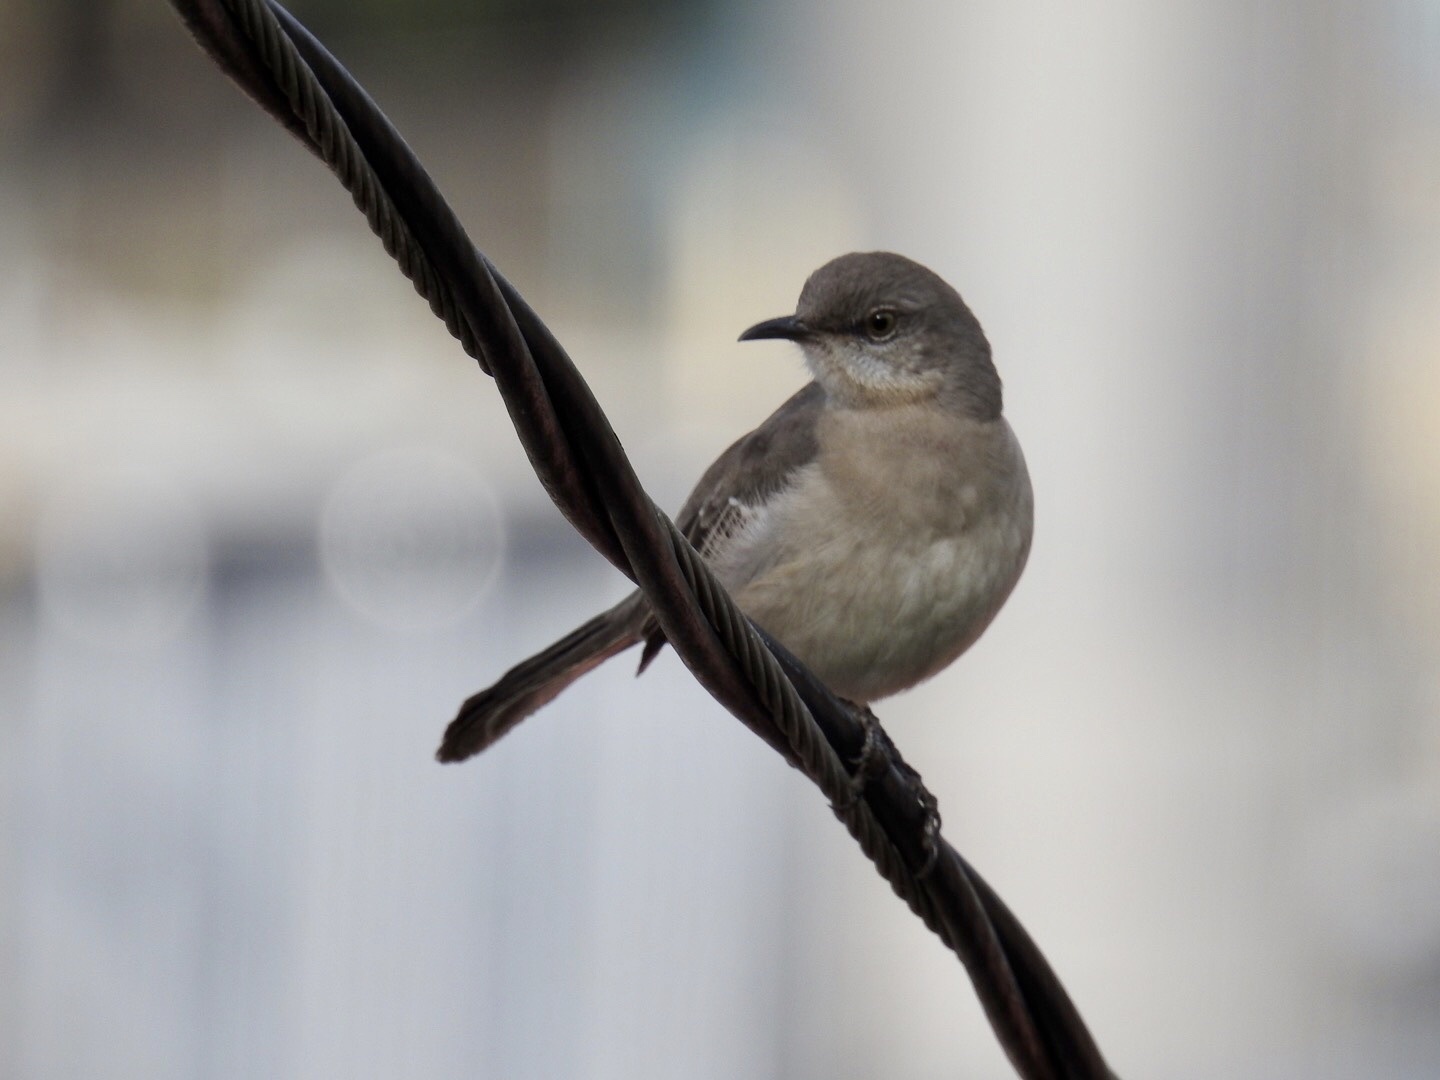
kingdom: Animalia
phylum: Chordata
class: Aves
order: Passeriformes
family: Mimidae
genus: Mimus
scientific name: Mimus polyglottos
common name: Northern mockingbird
